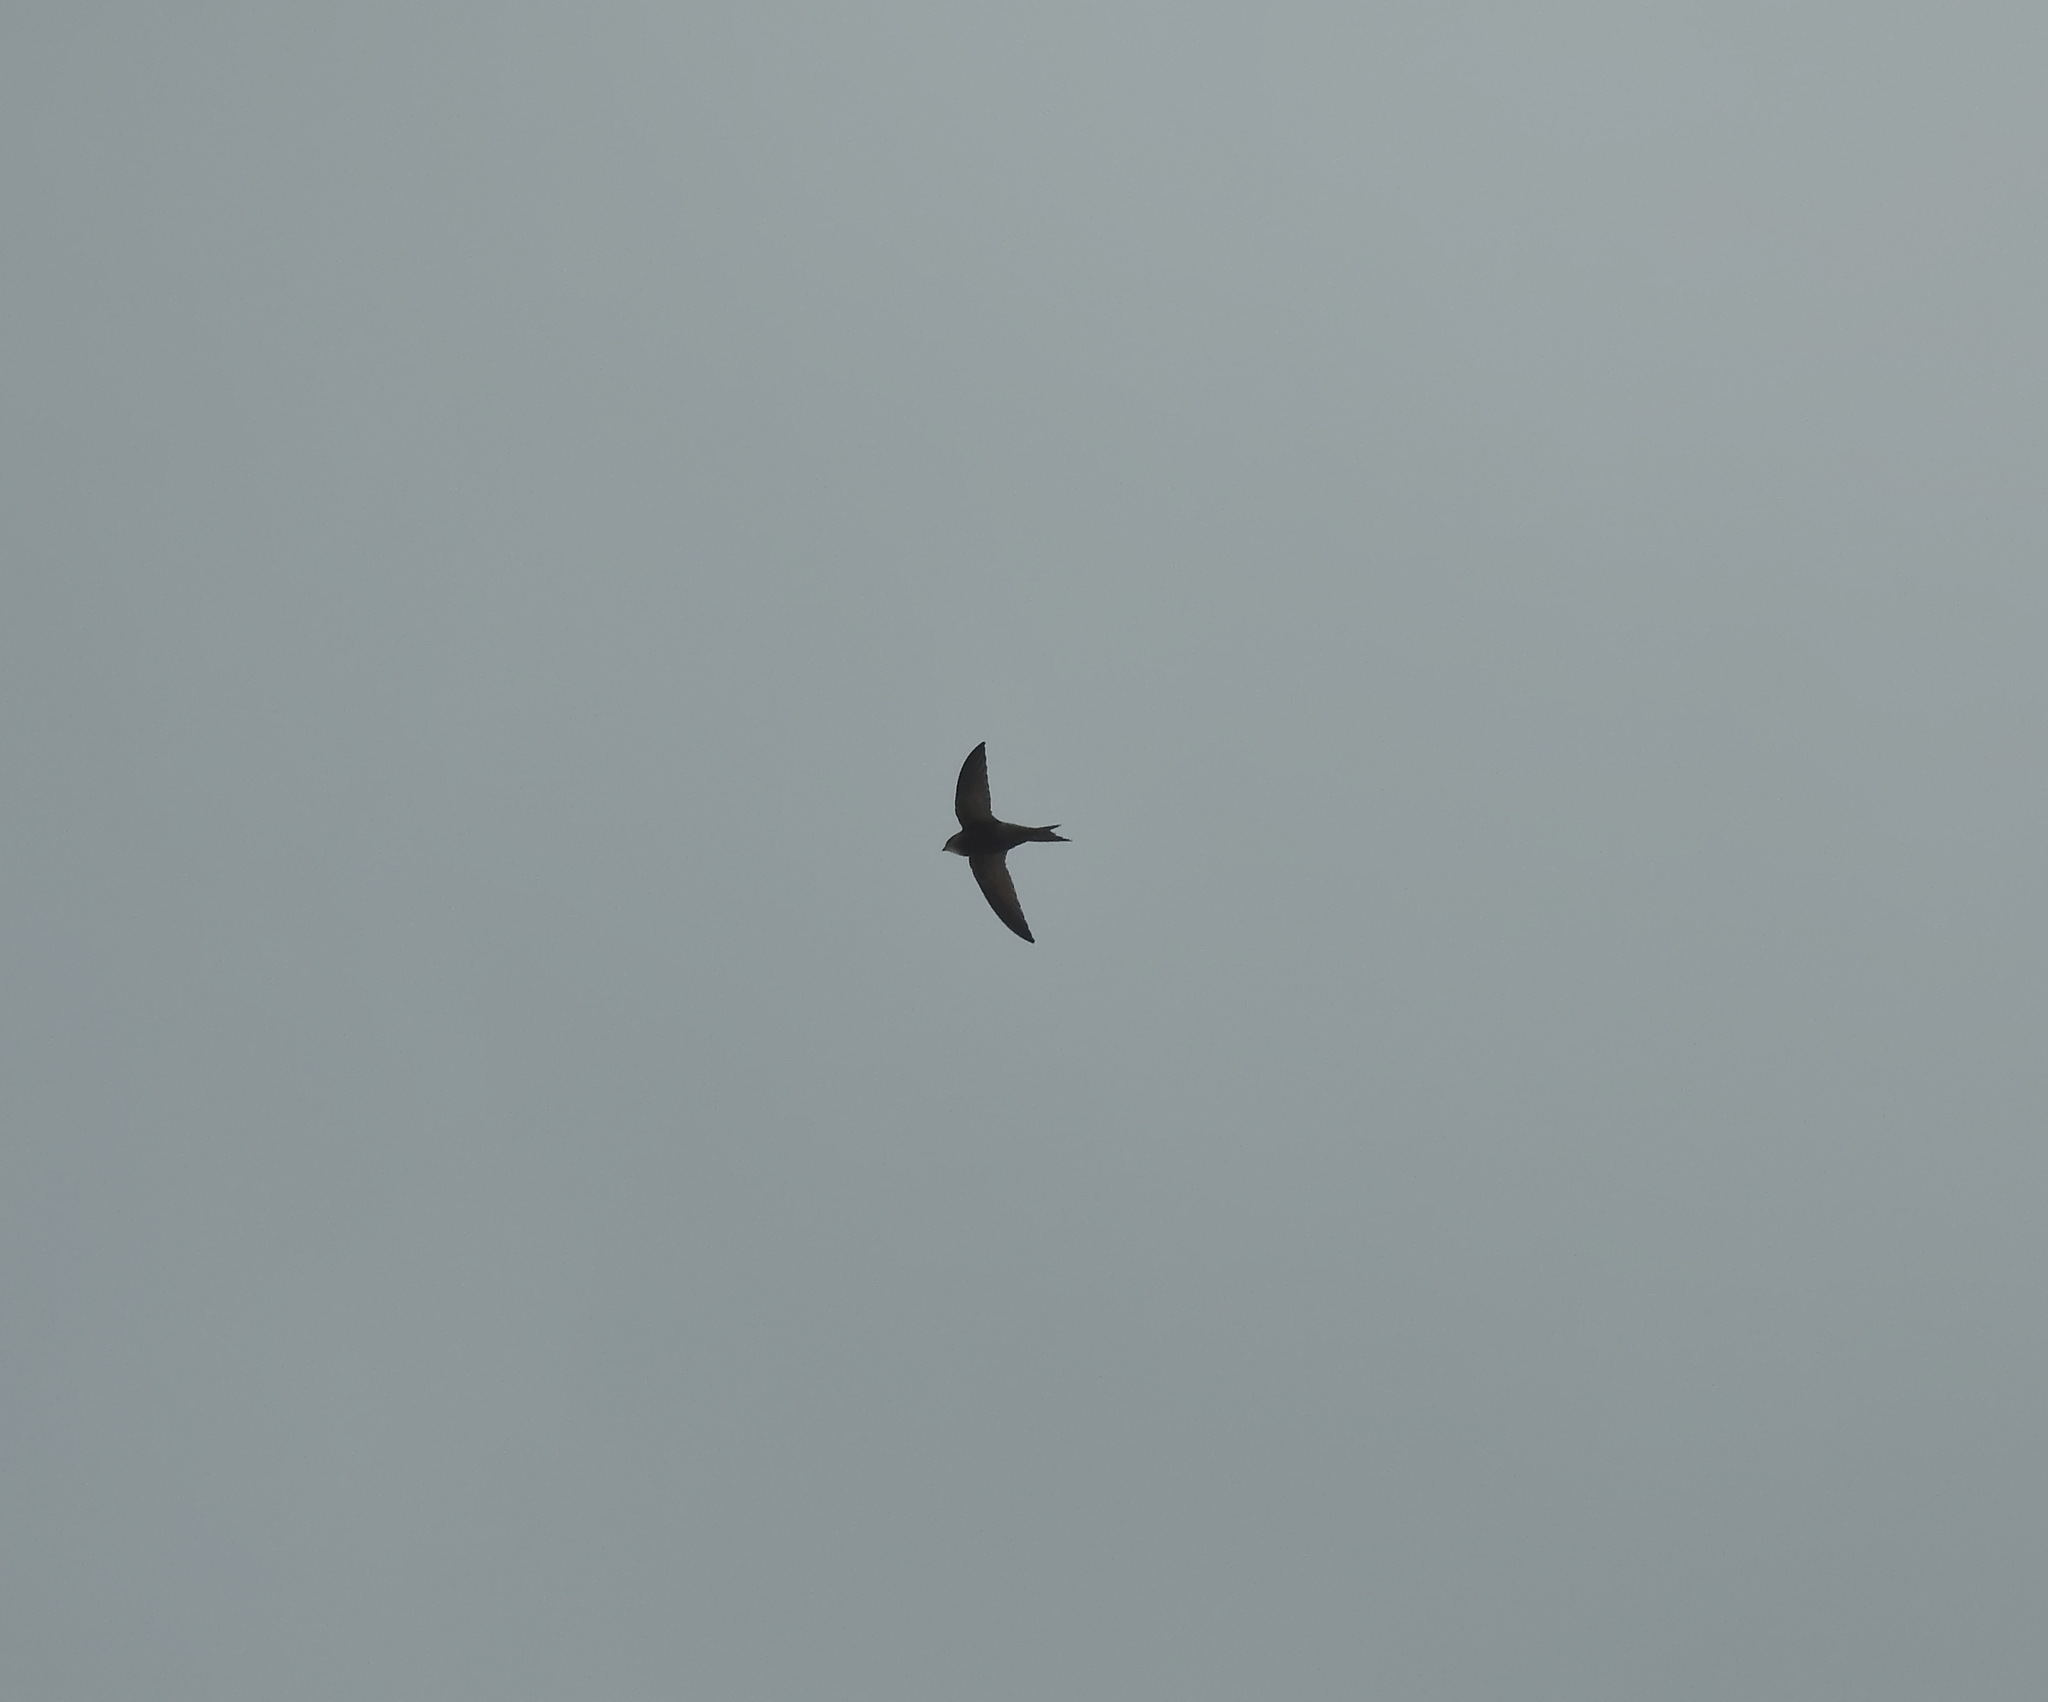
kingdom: Animalia
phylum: Chordata
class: Aves
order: Apodiformes
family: Apodidae
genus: Apus
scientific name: Apus pallidus
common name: Pallid swift
